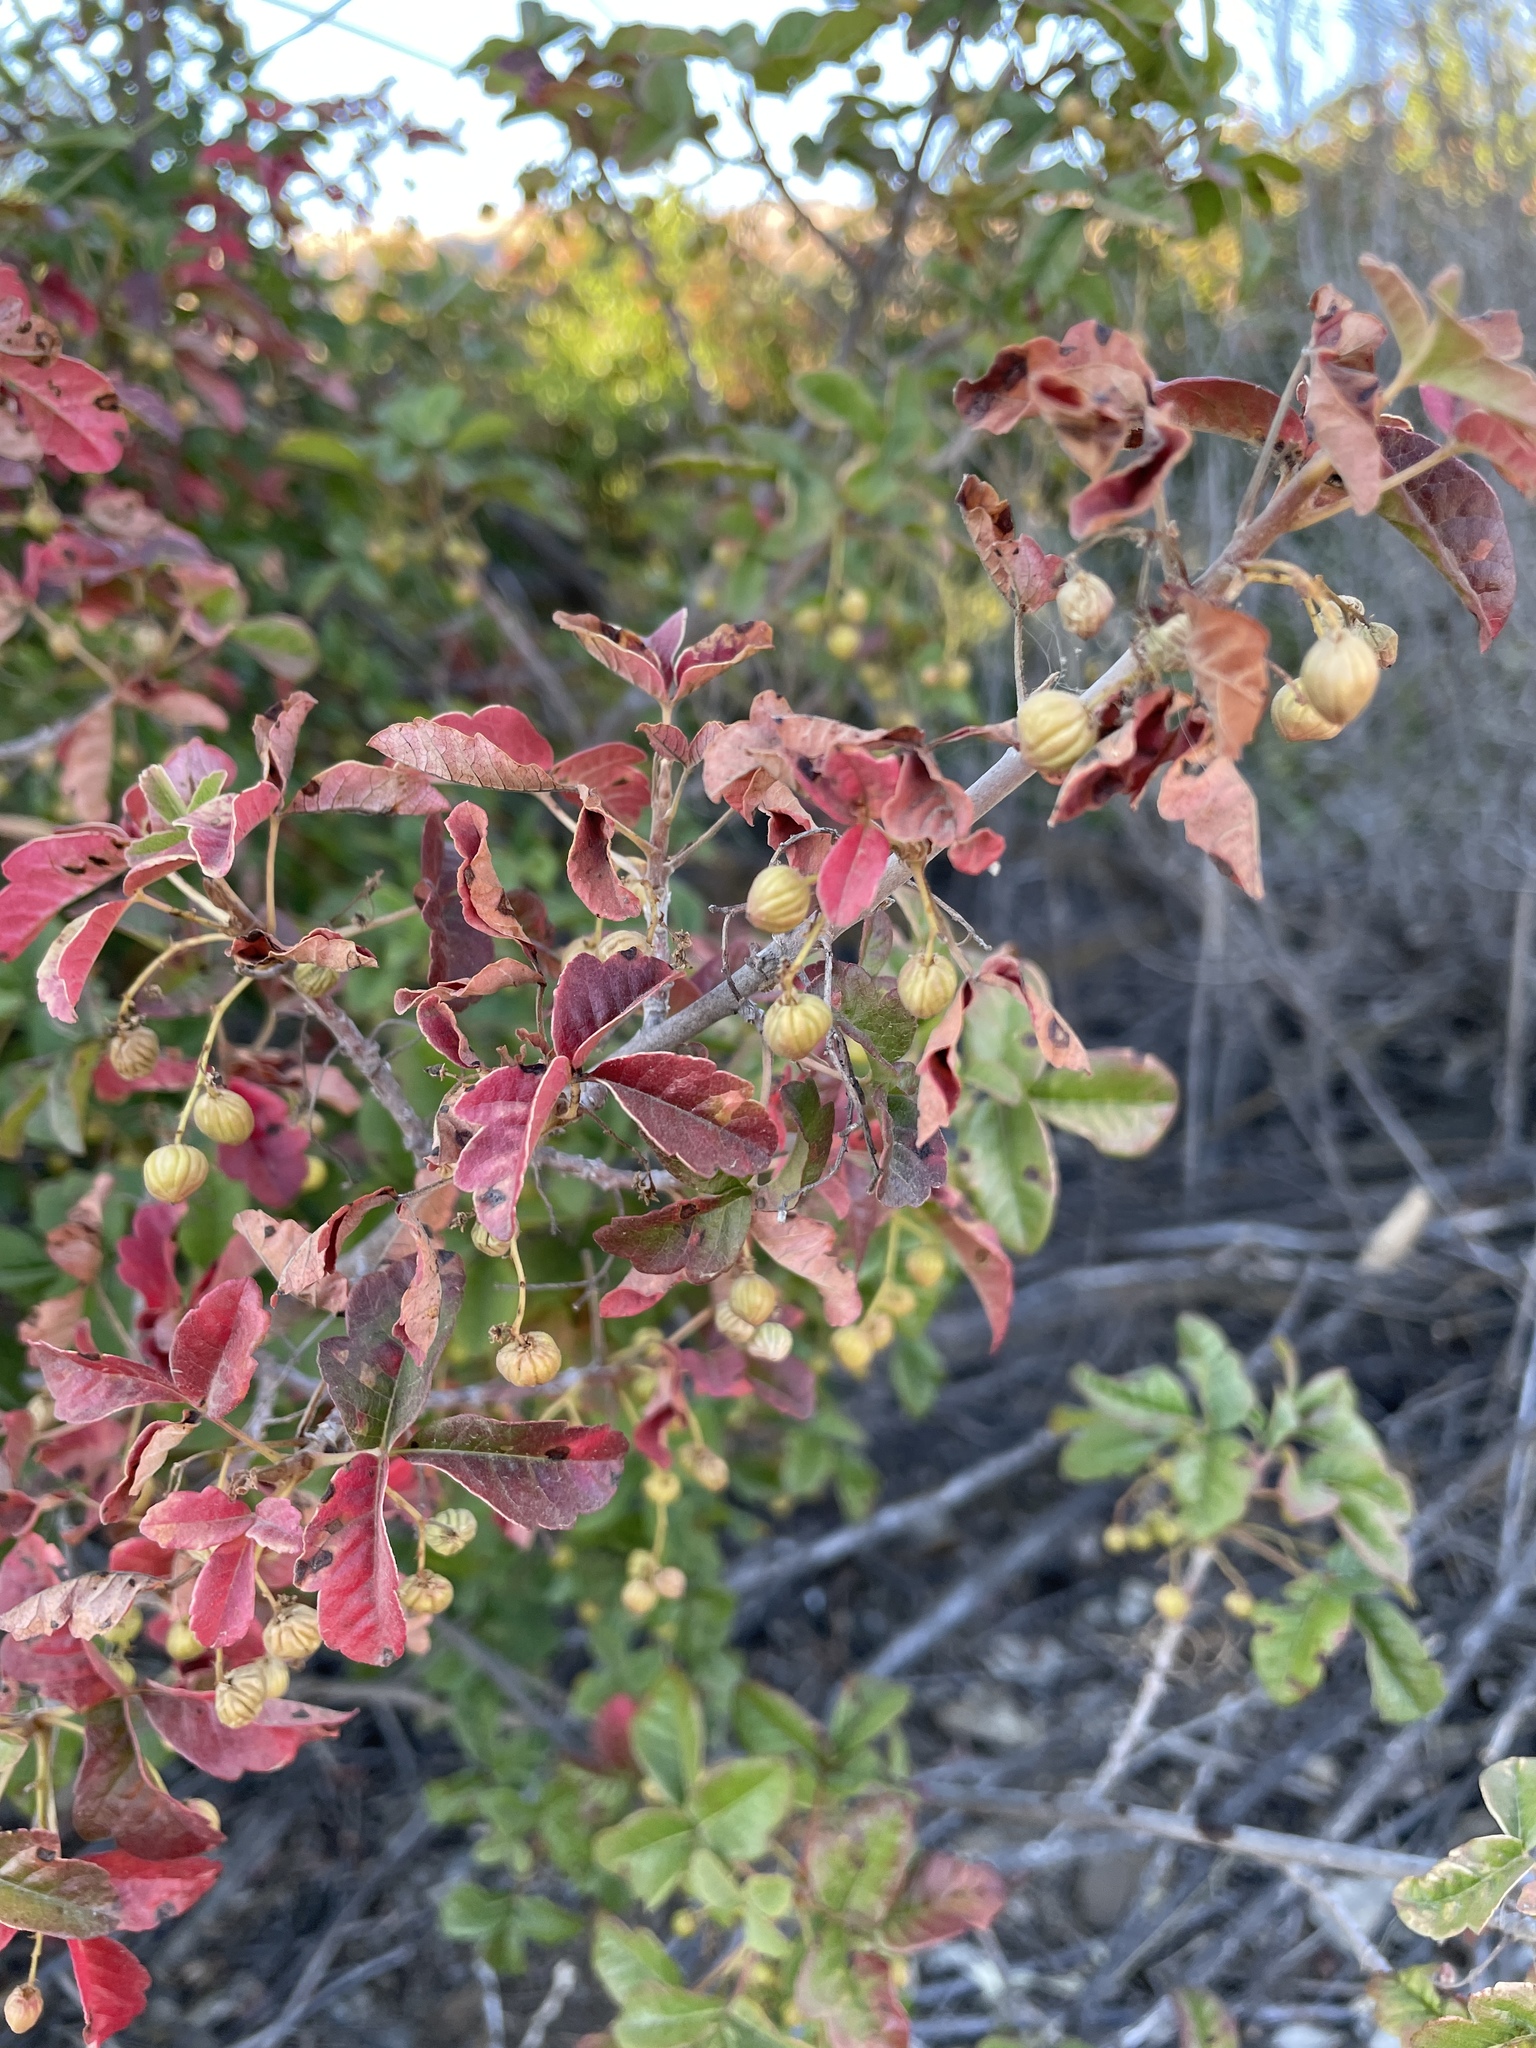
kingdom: Plantae
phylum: Tracheophyta
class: Magnoliopsida
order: Sapindales
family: Anacardiaceae
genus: Toxicodendron
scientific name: Toxicodendron diversilobum
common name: Pacific poison-oak
